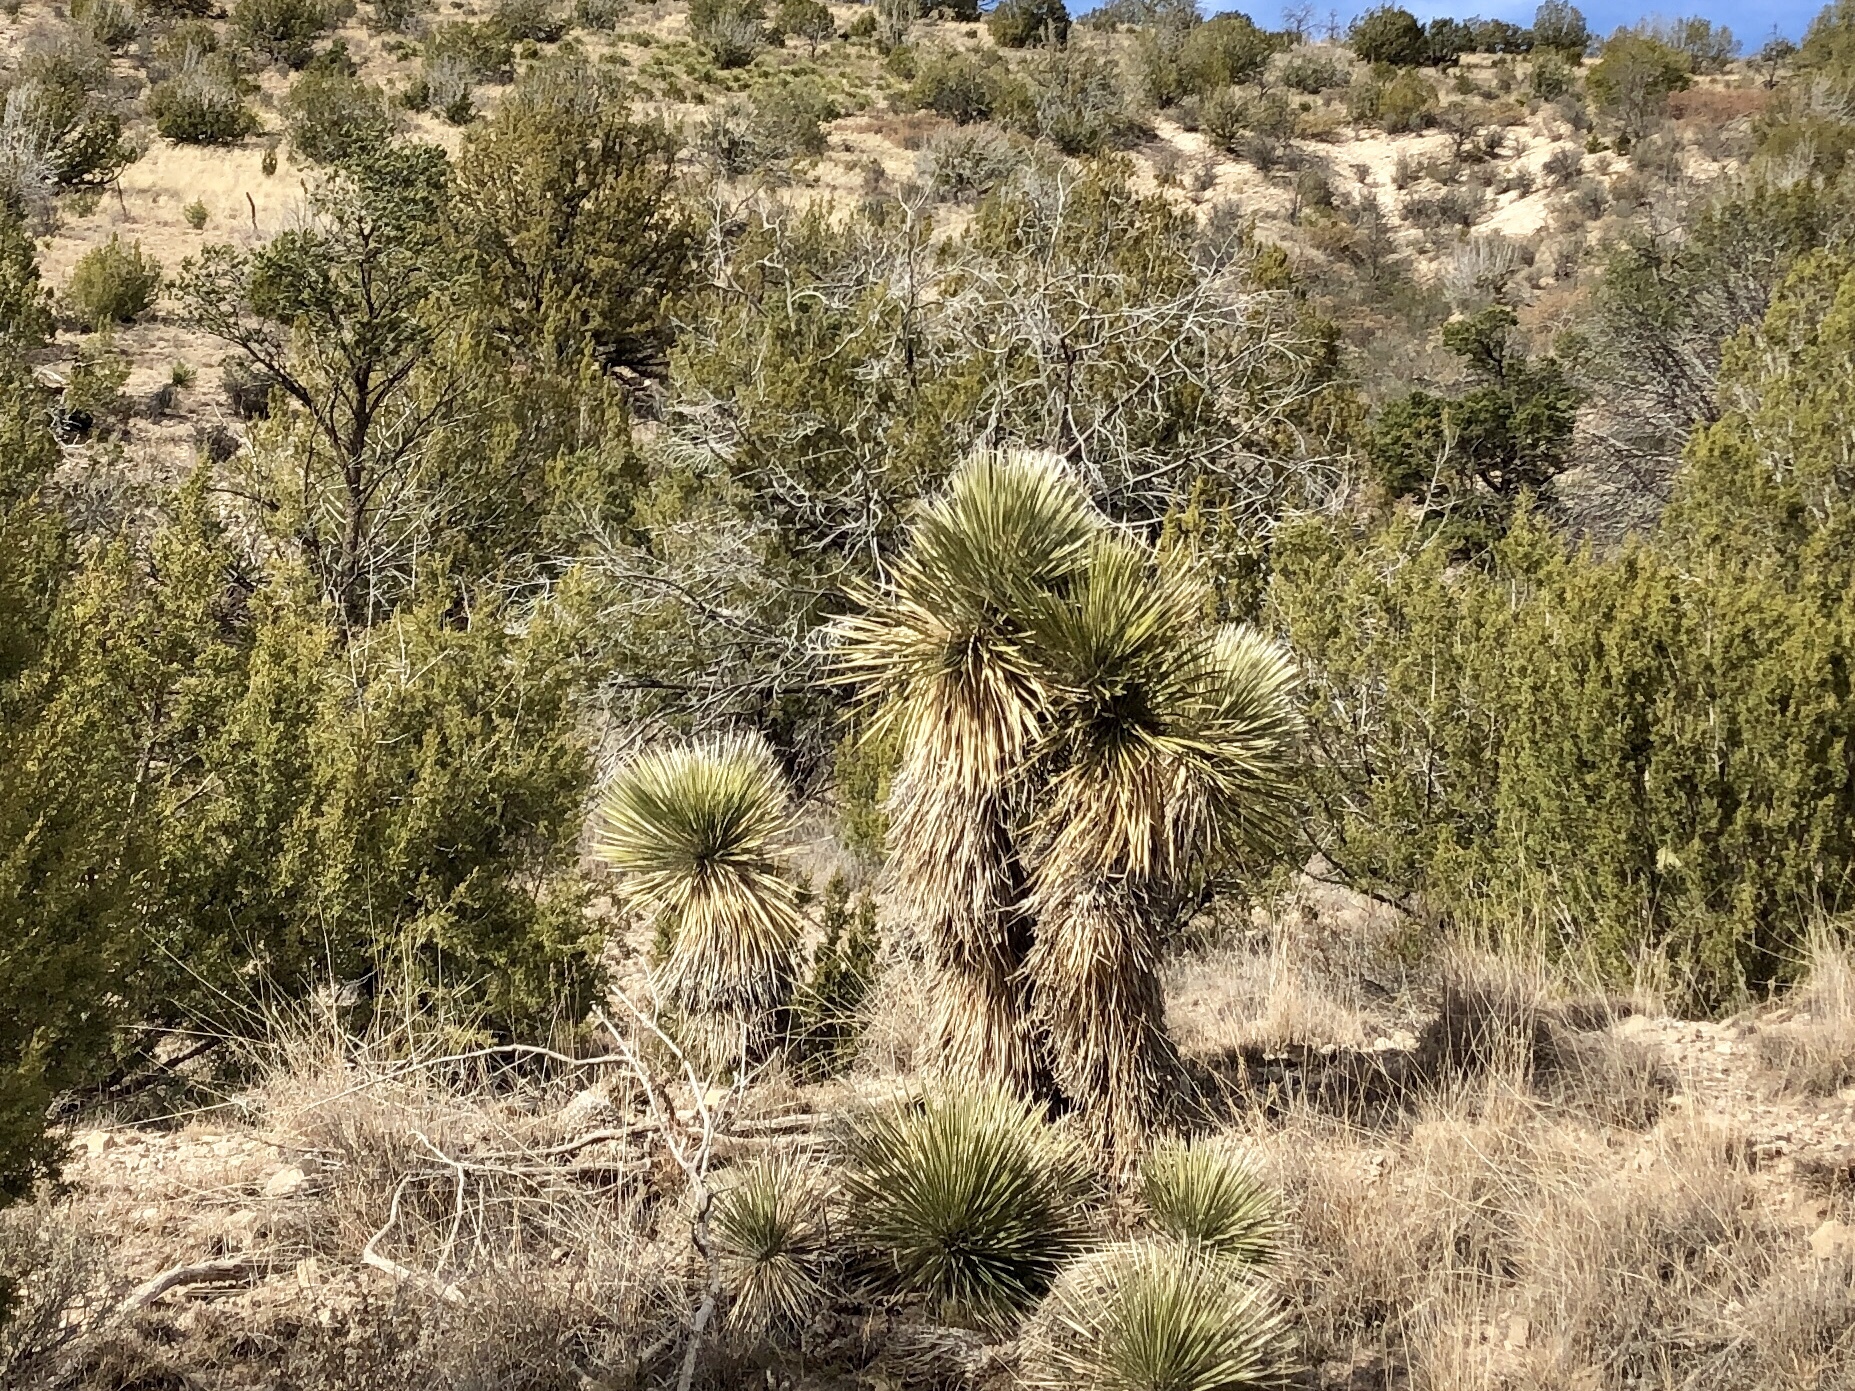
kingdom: Plantae
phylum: Tracheophyta
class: Liliopsida
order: Asparagales
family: Asparagaceae
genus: Yucca
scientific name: Yucca elata
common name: Palmella
